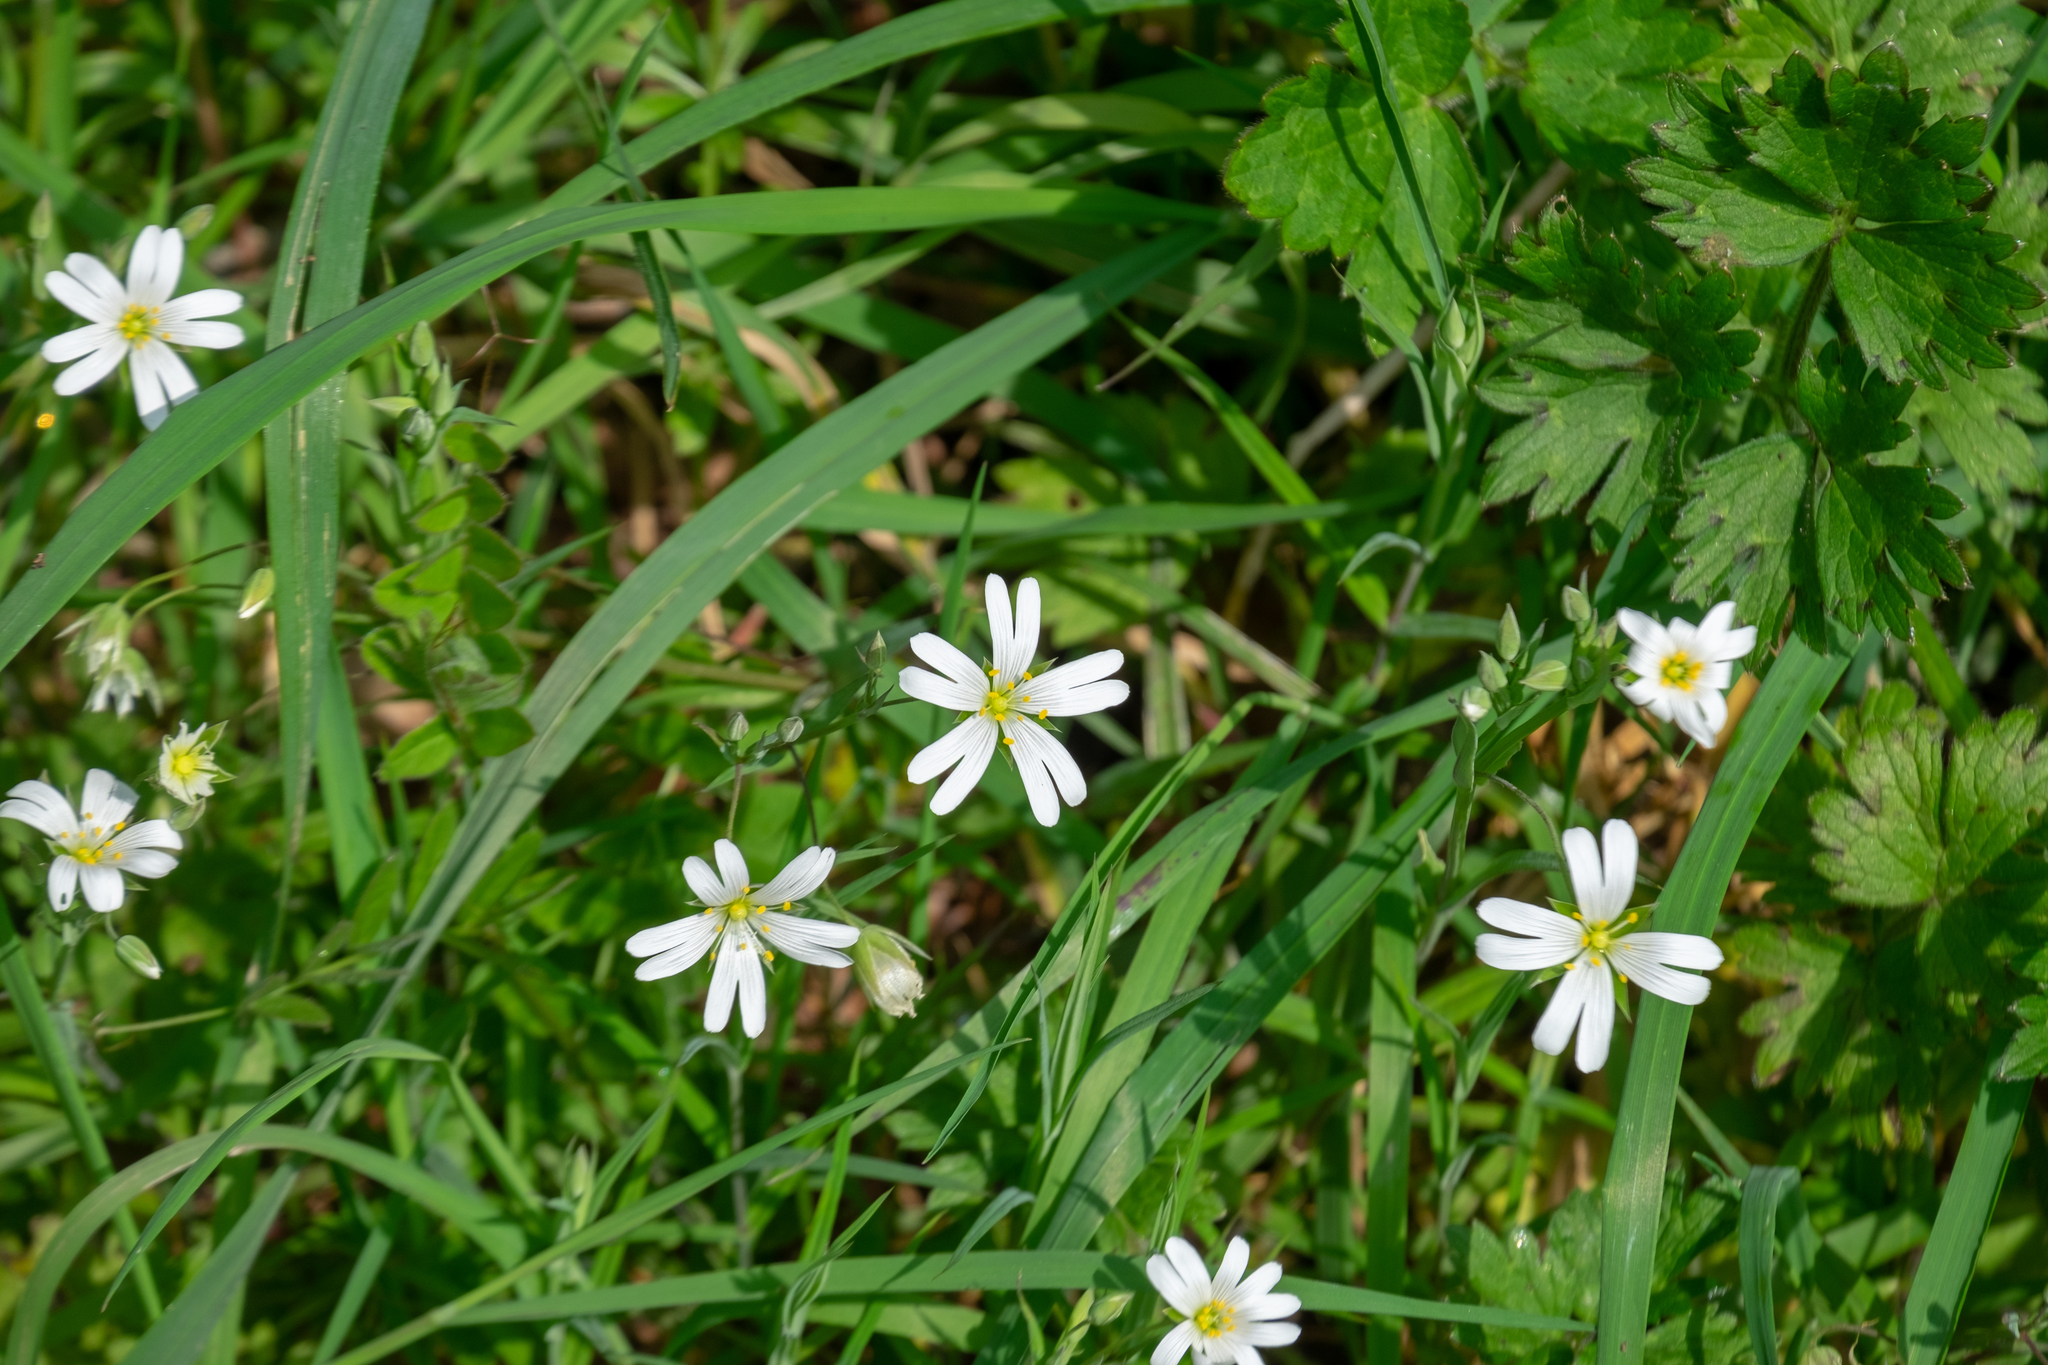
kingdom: Plantae
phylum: Tracheophyta
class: Magnoliopsida
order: Caryophyllales
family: Caryophyllaceae
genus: Rabelera
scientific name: Rabelera holostea
